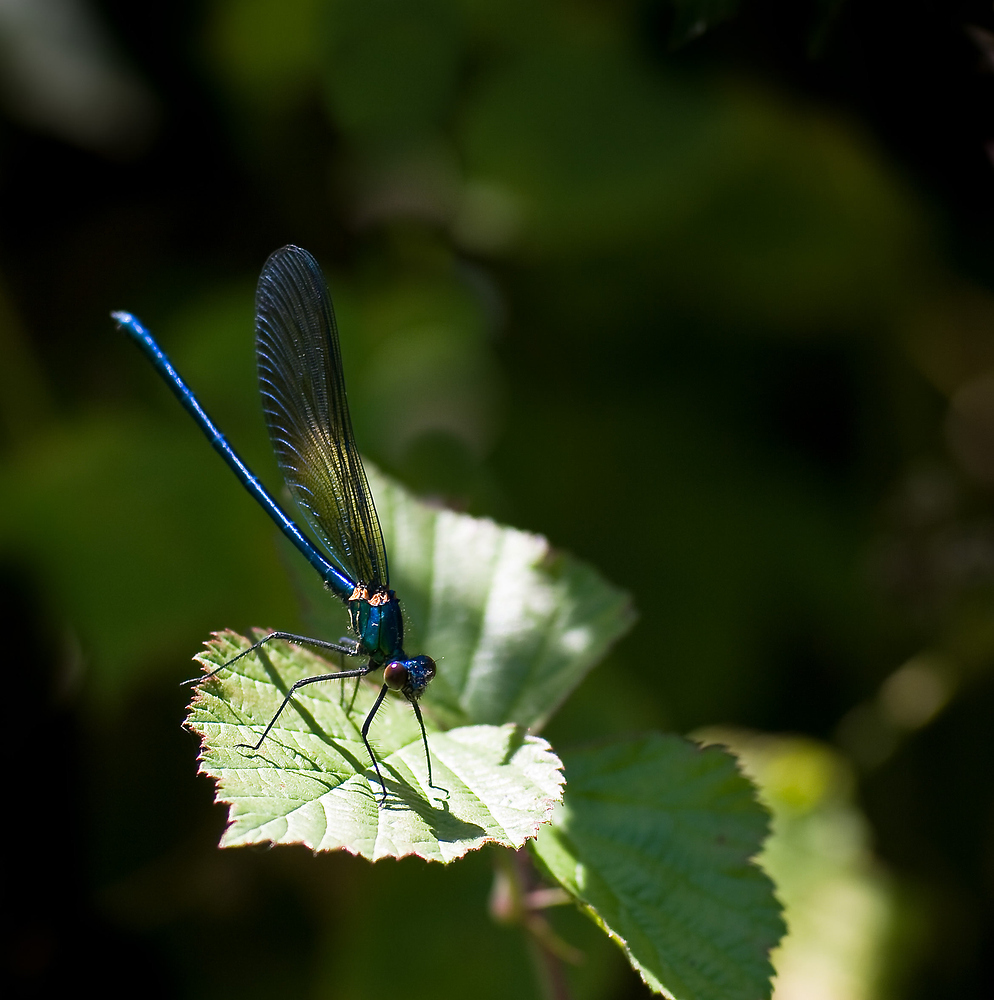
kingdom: Animalia
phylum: Arthropoda
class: Insecta
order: Odonata
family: Calopterygidae
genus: Calopteryx
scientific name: Calopteryx xanthostoma
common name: Western demoiselle
